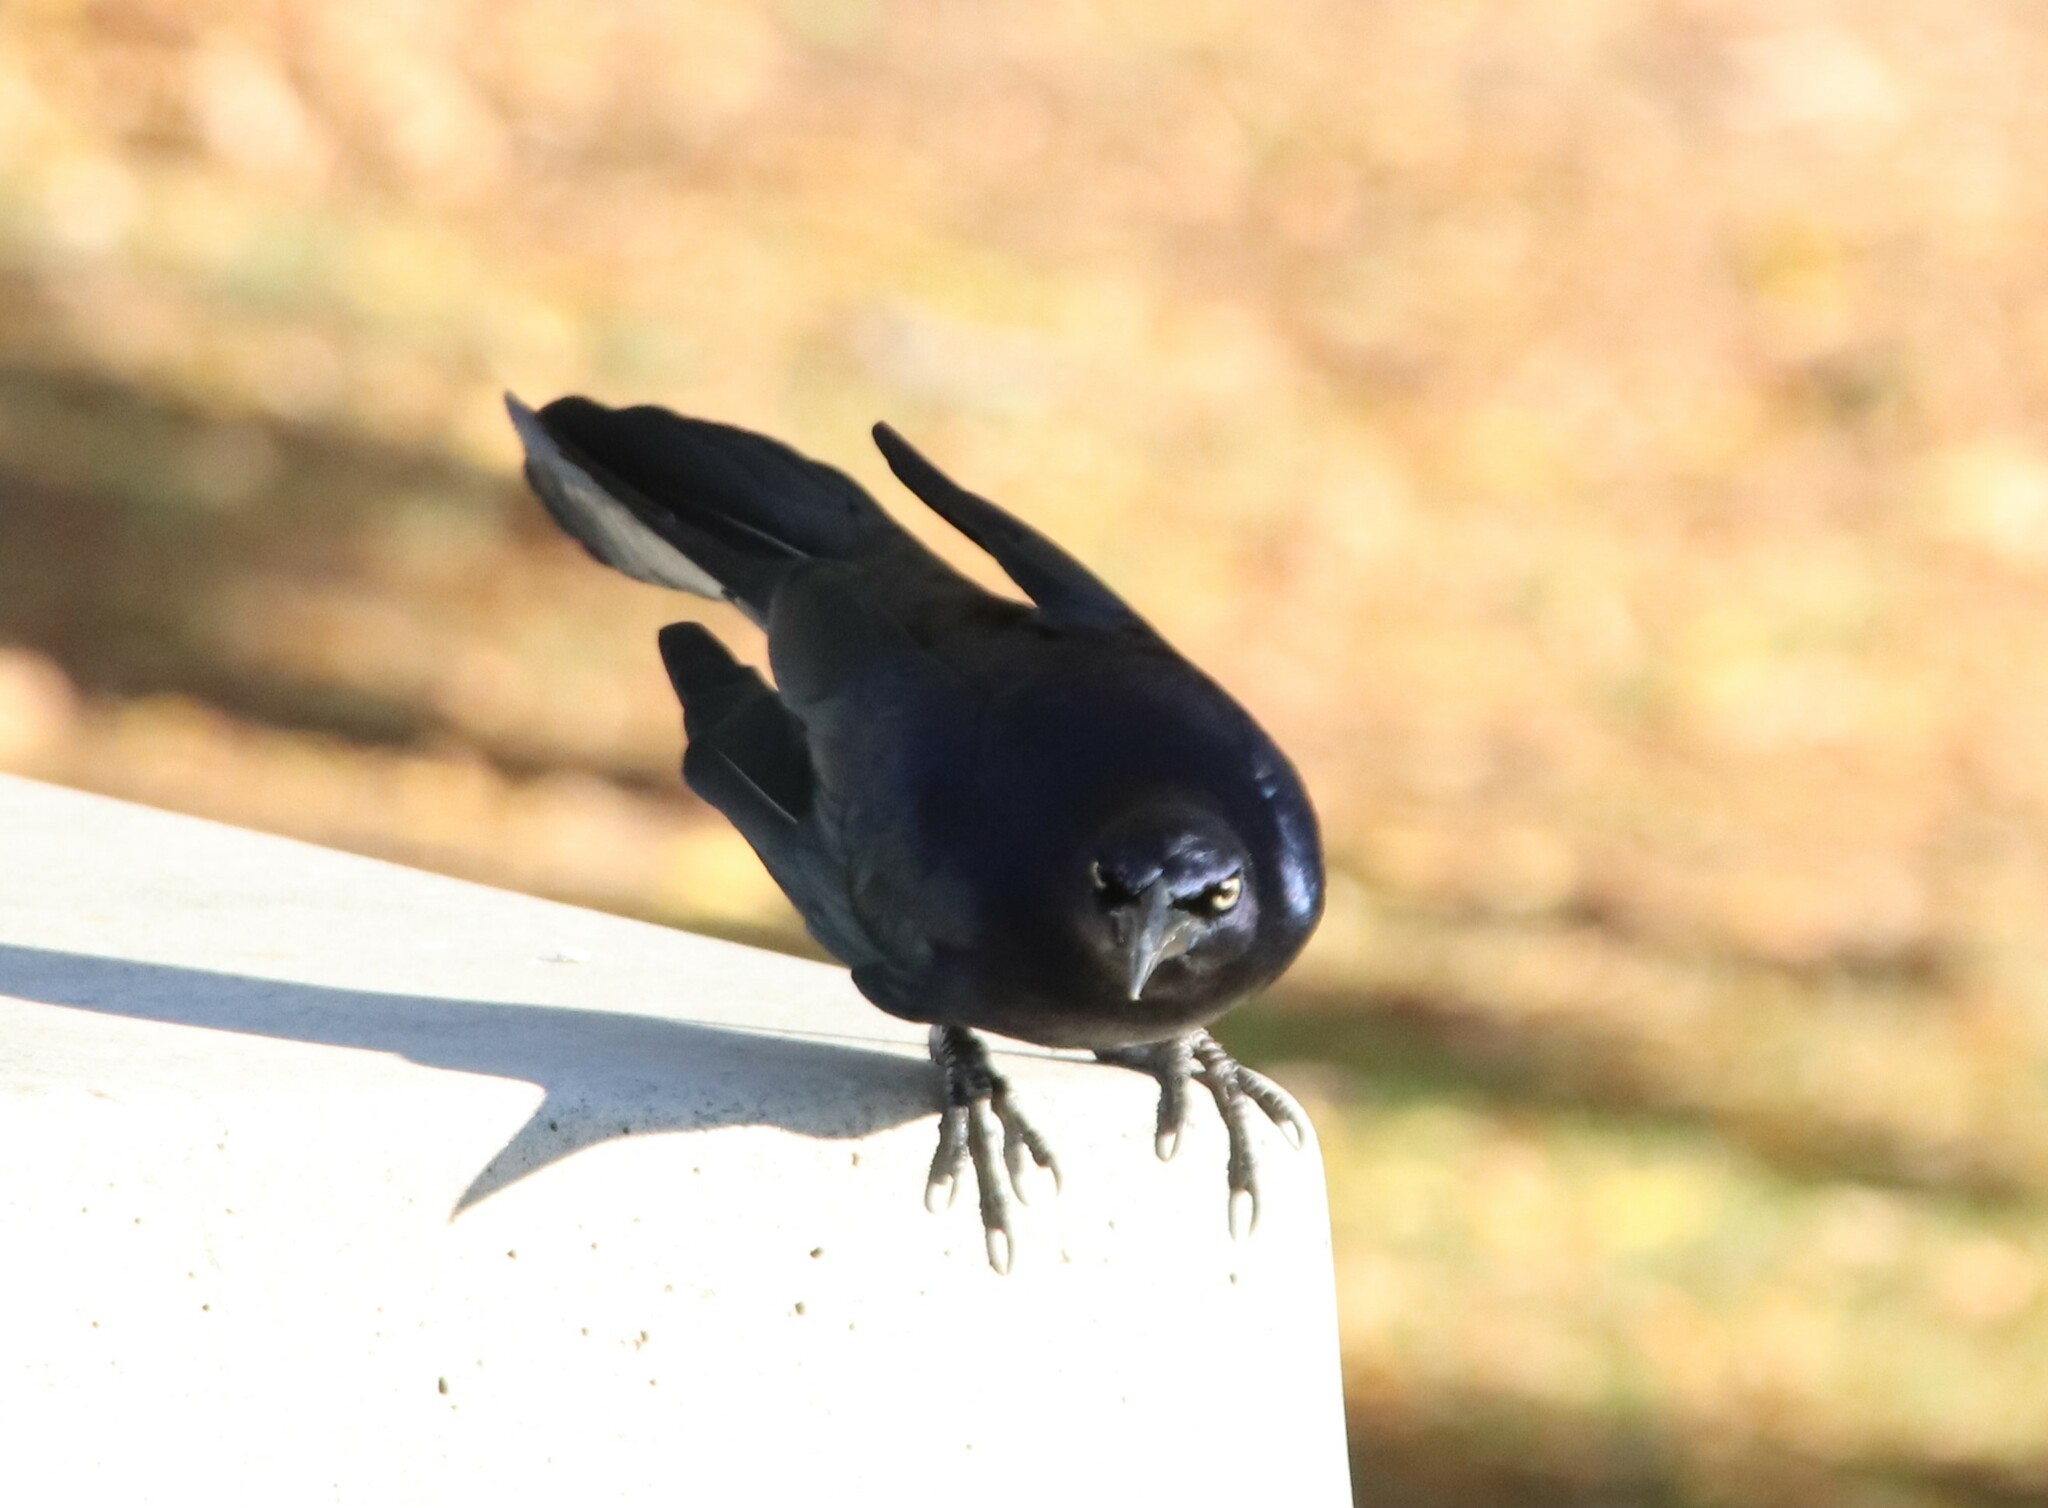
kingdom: Animalia
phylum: Chordata
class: Aves
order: Passeriformes
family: Icteridae
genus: Quiscalus
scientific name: Quiscalus mexicanus
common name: Great-tailed grackle
